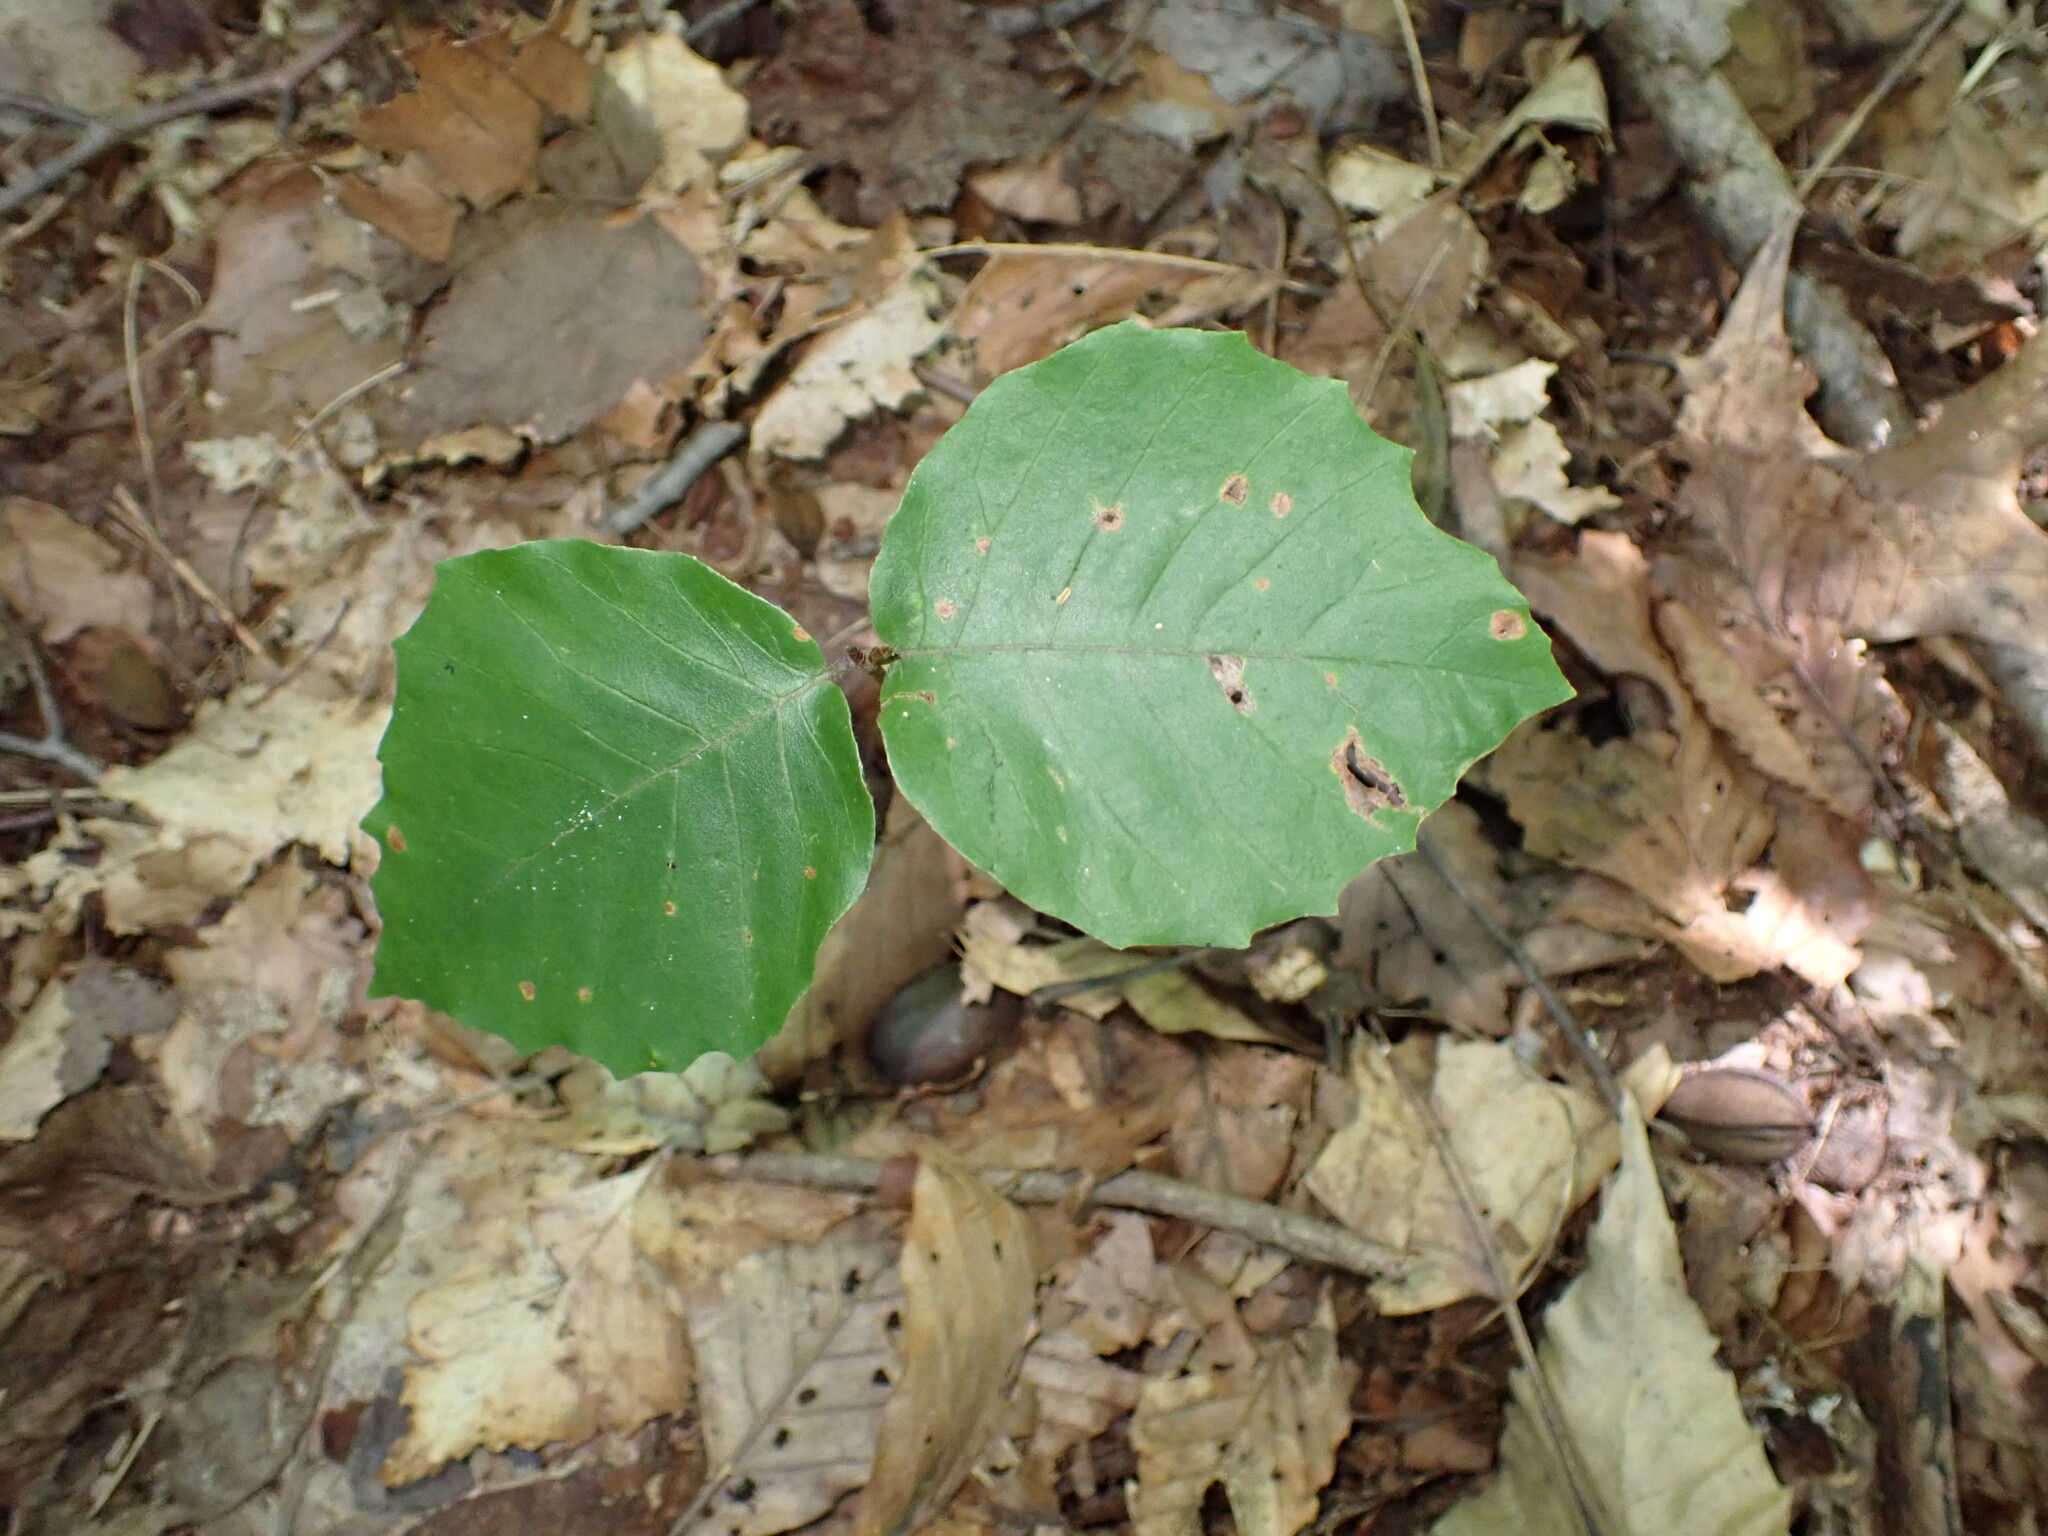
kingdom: Plantae
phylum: Tracheophyta
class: Magnoliopsida
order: Fagales
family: Fagaceae
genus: Fagus
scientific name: Fagus grandifolia
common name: American beech
